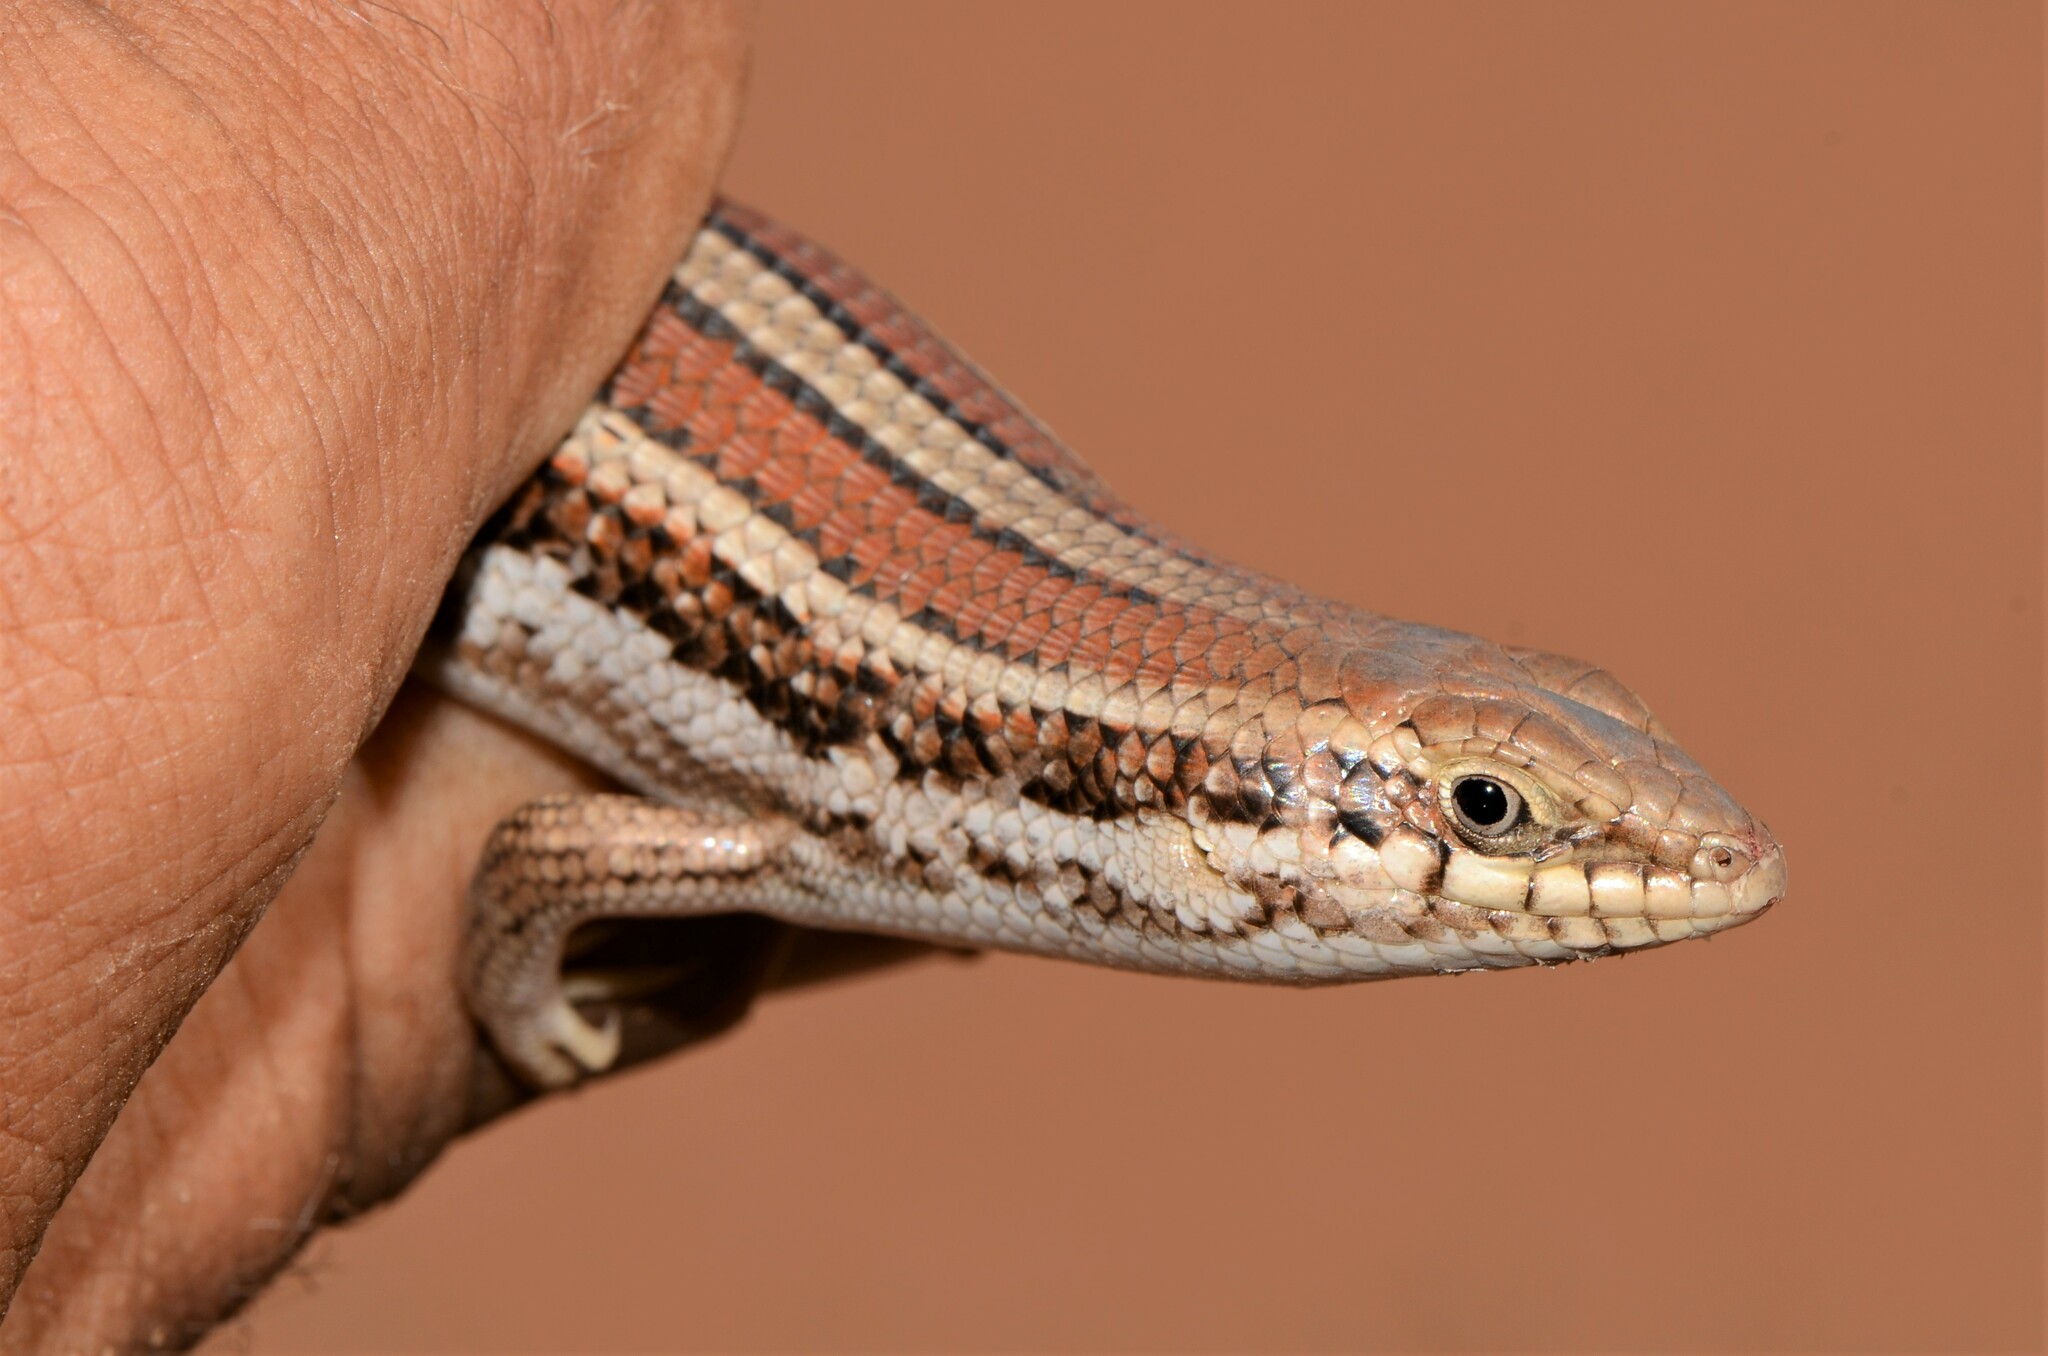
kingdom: Animalia
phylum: Chordata
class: Squamata
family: Scincidae
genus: Trachylepis
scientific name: Trachylepis occidentalis
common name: Western three-striped skink
